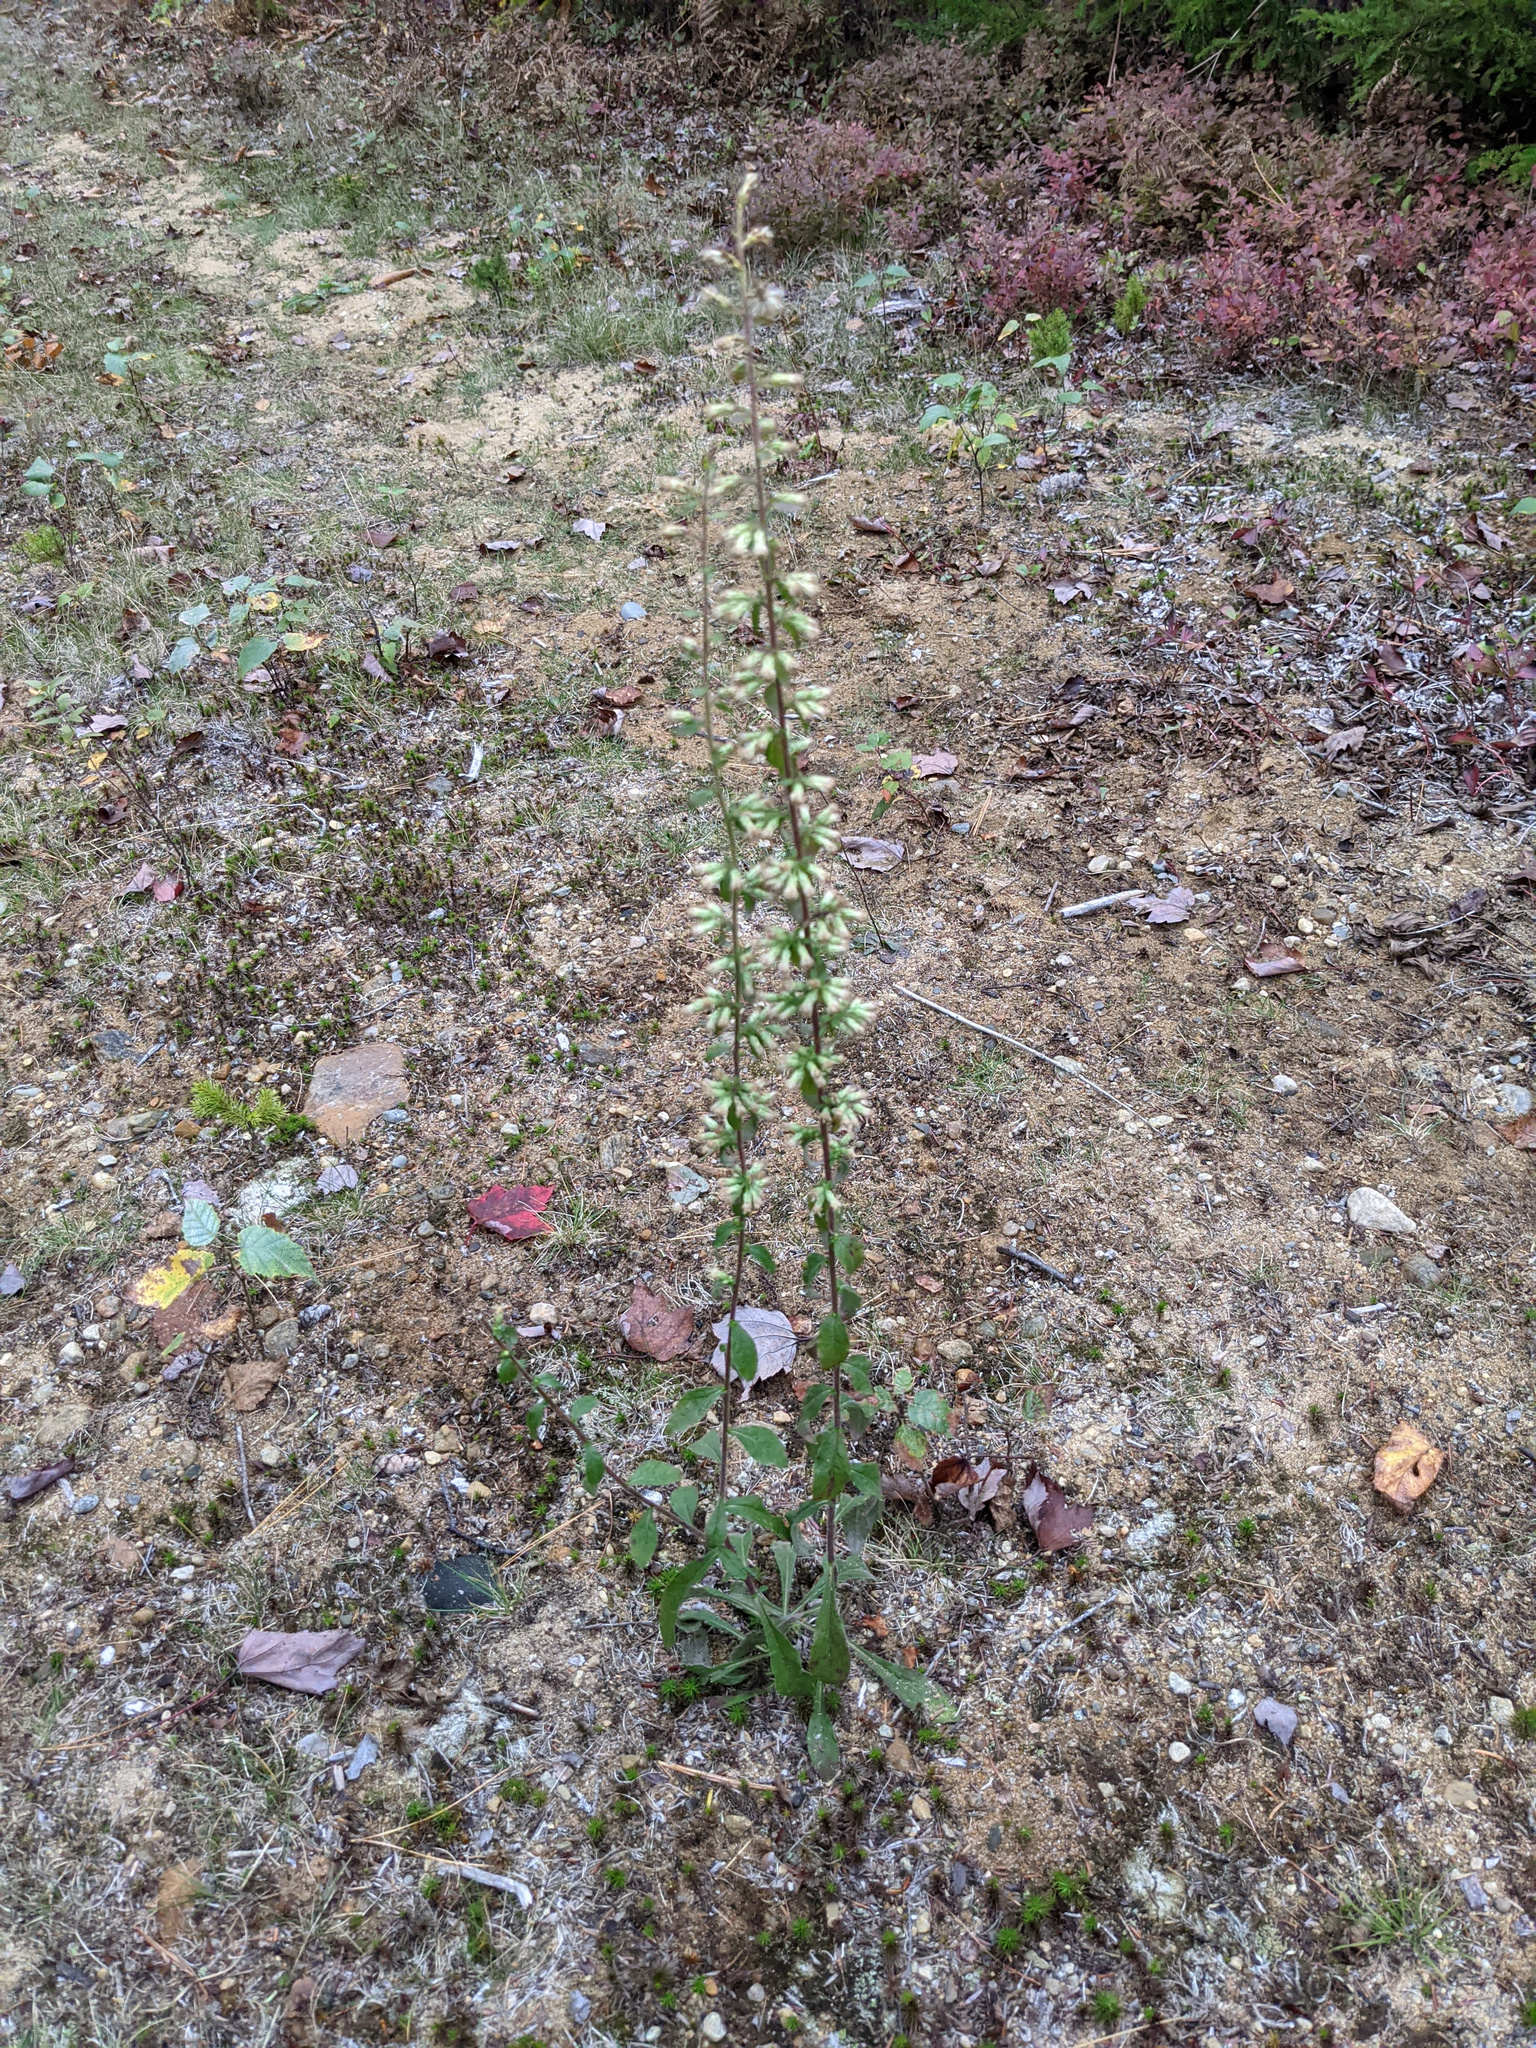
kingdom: Plantae
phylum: Tracheophyta
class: Magnoliopsida
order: Asterales
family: Asteraceae
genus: Solidago
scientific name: Solidago bicolor
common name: Silverrod
